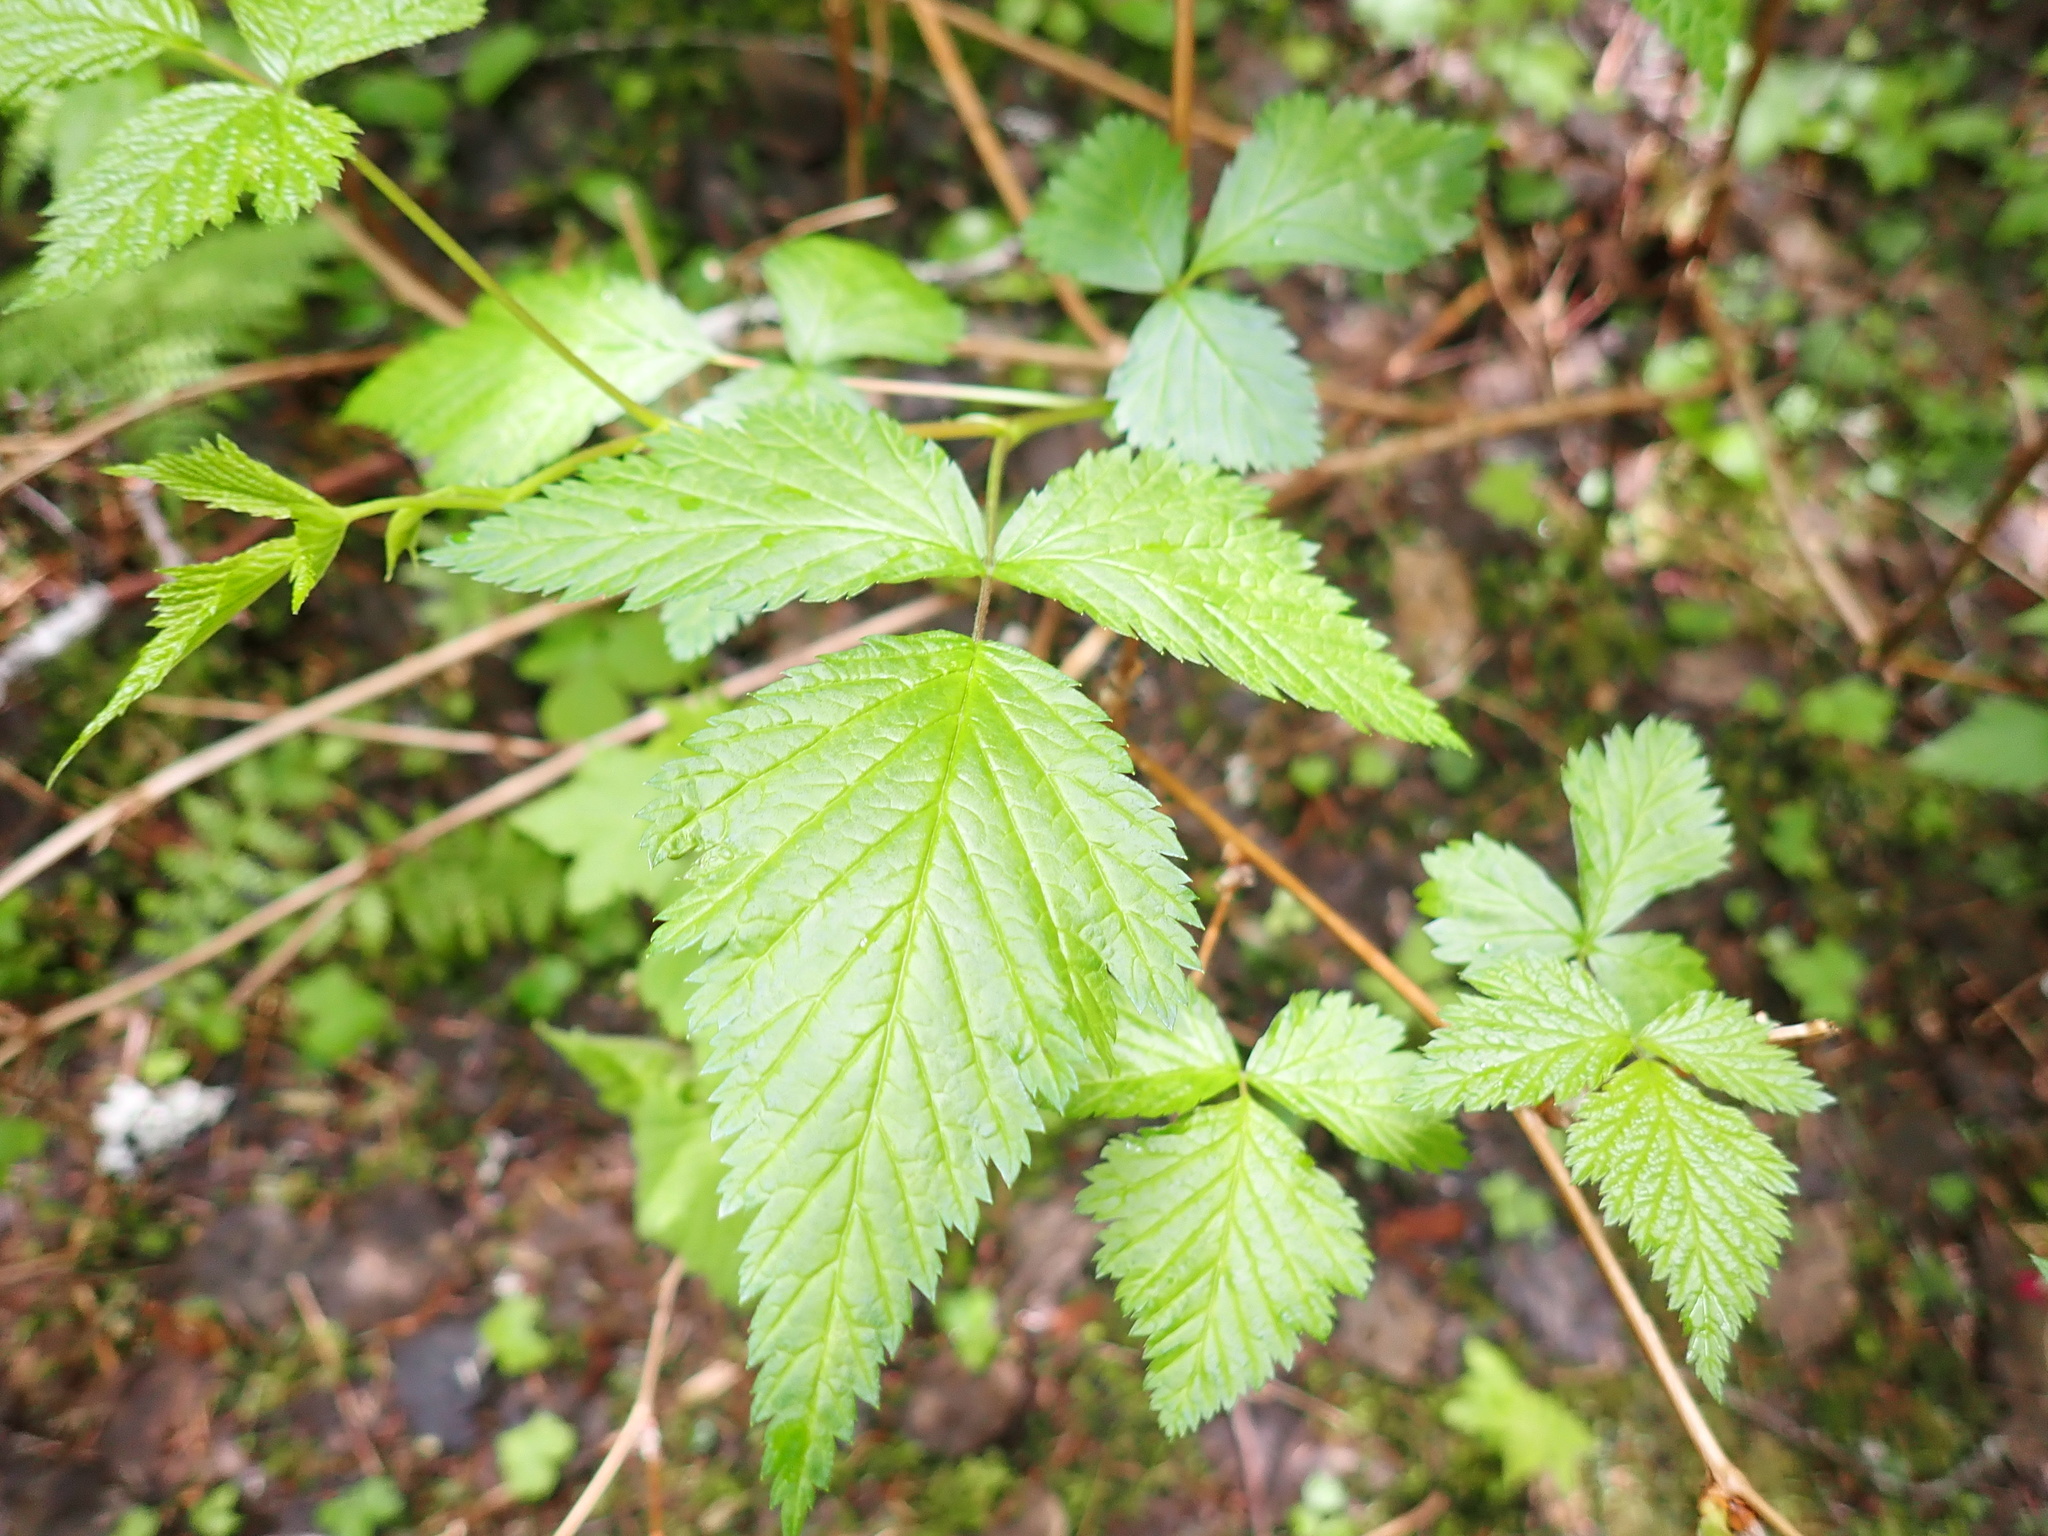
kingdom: Plantae
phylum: Tracheophyta
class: Magnoliopsida
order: Rosales
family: Rosaceae
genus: Rubus
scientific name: Rubus spectabilis
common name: Salmonberry
